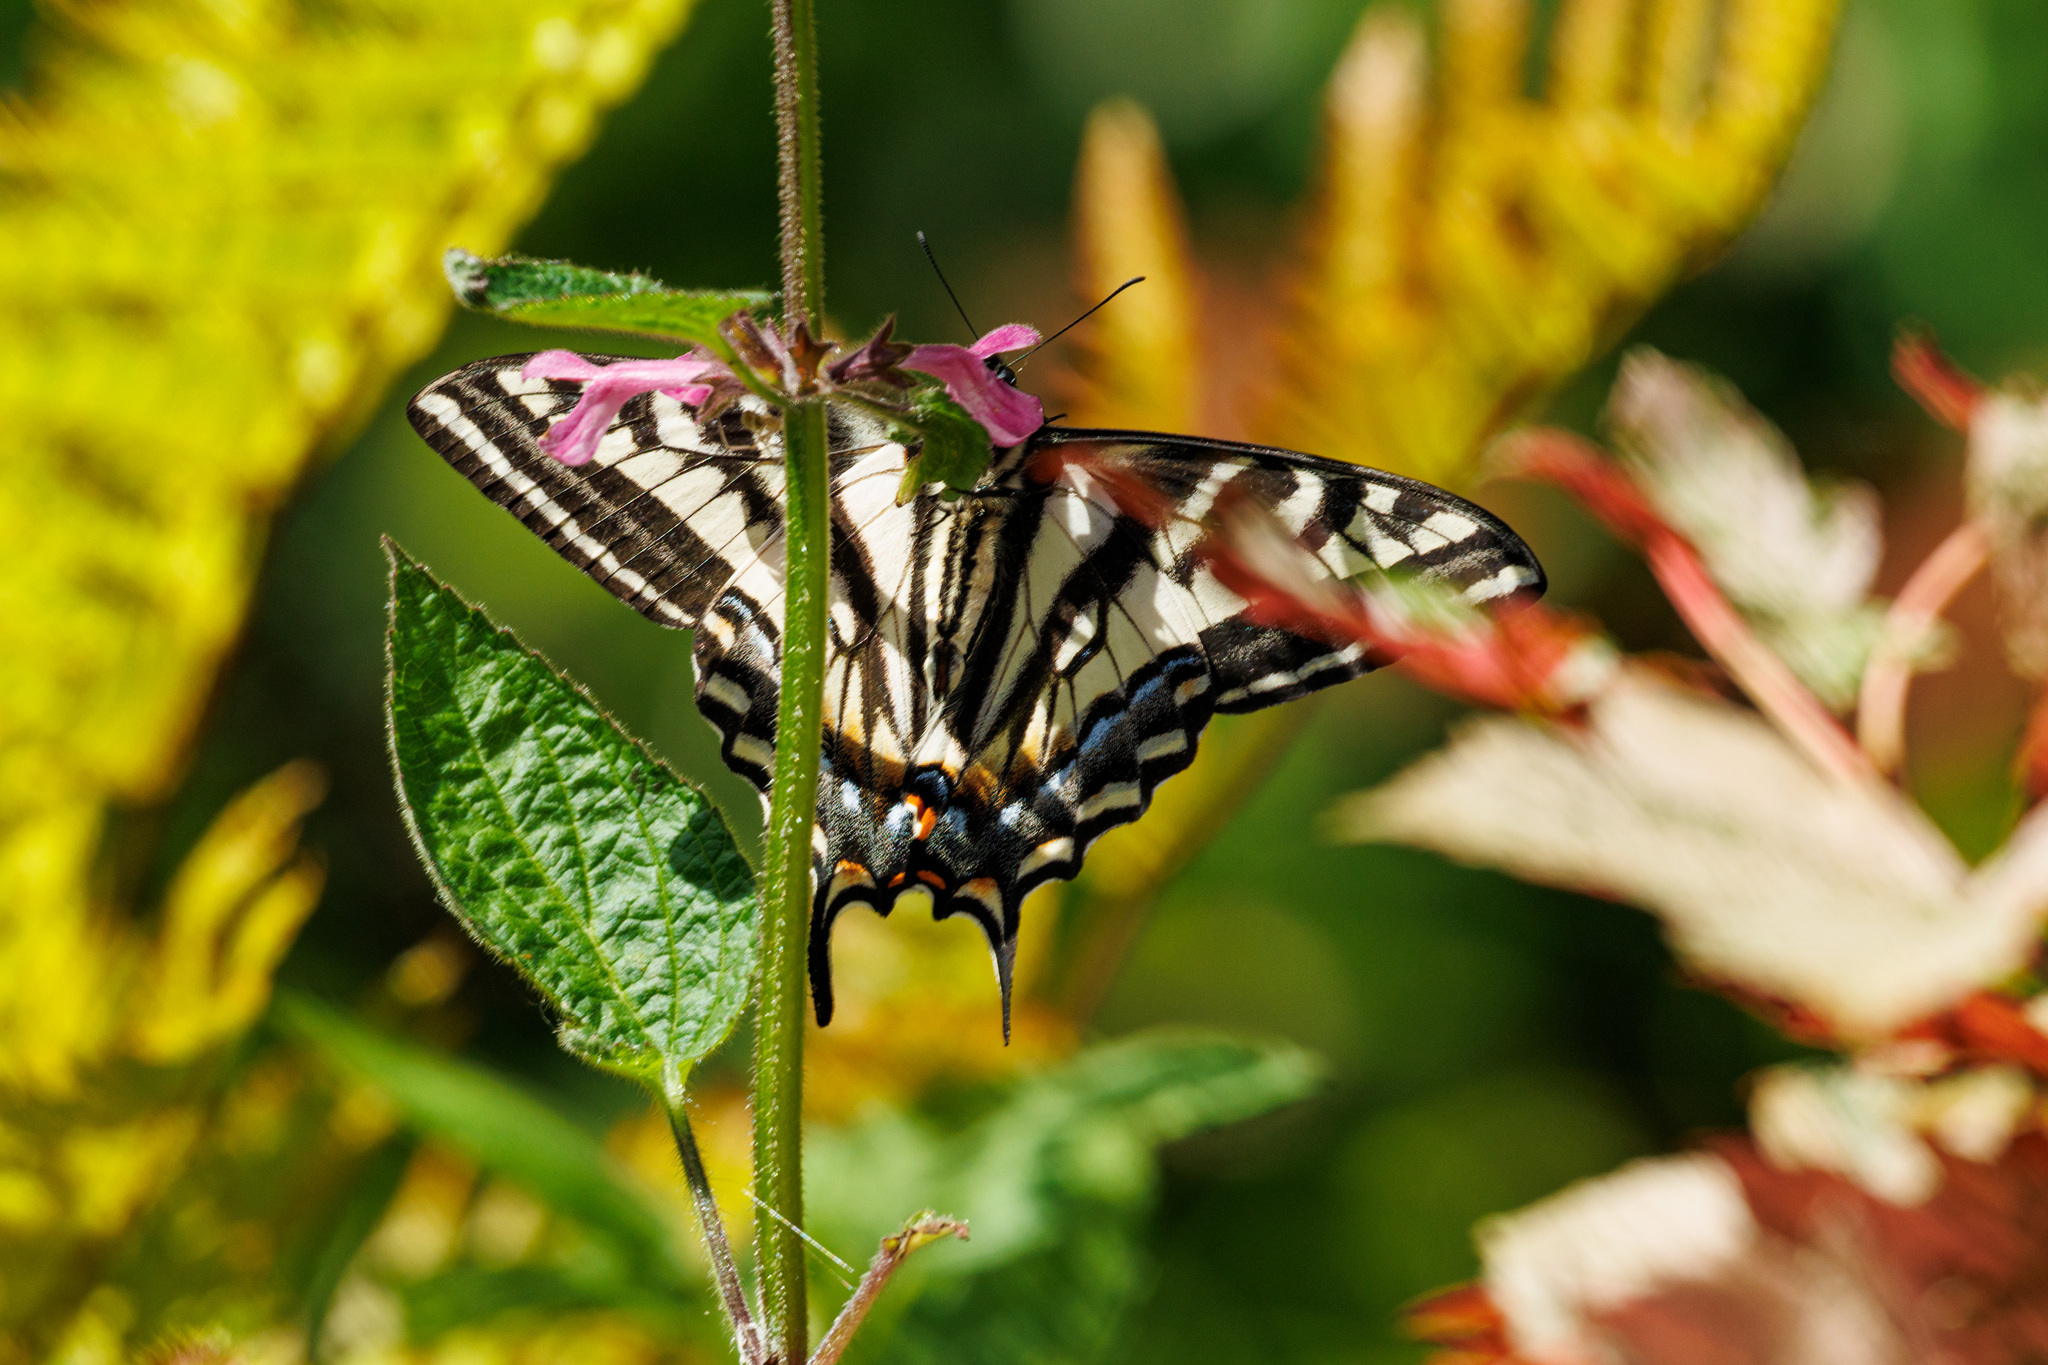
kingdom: Animalia
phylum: Arthropoda
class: Insecta
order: Lepidoptera
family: Papilionidae
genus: Papilio
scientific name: Papilio eurymedon
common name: Pale tiger swallowtail
